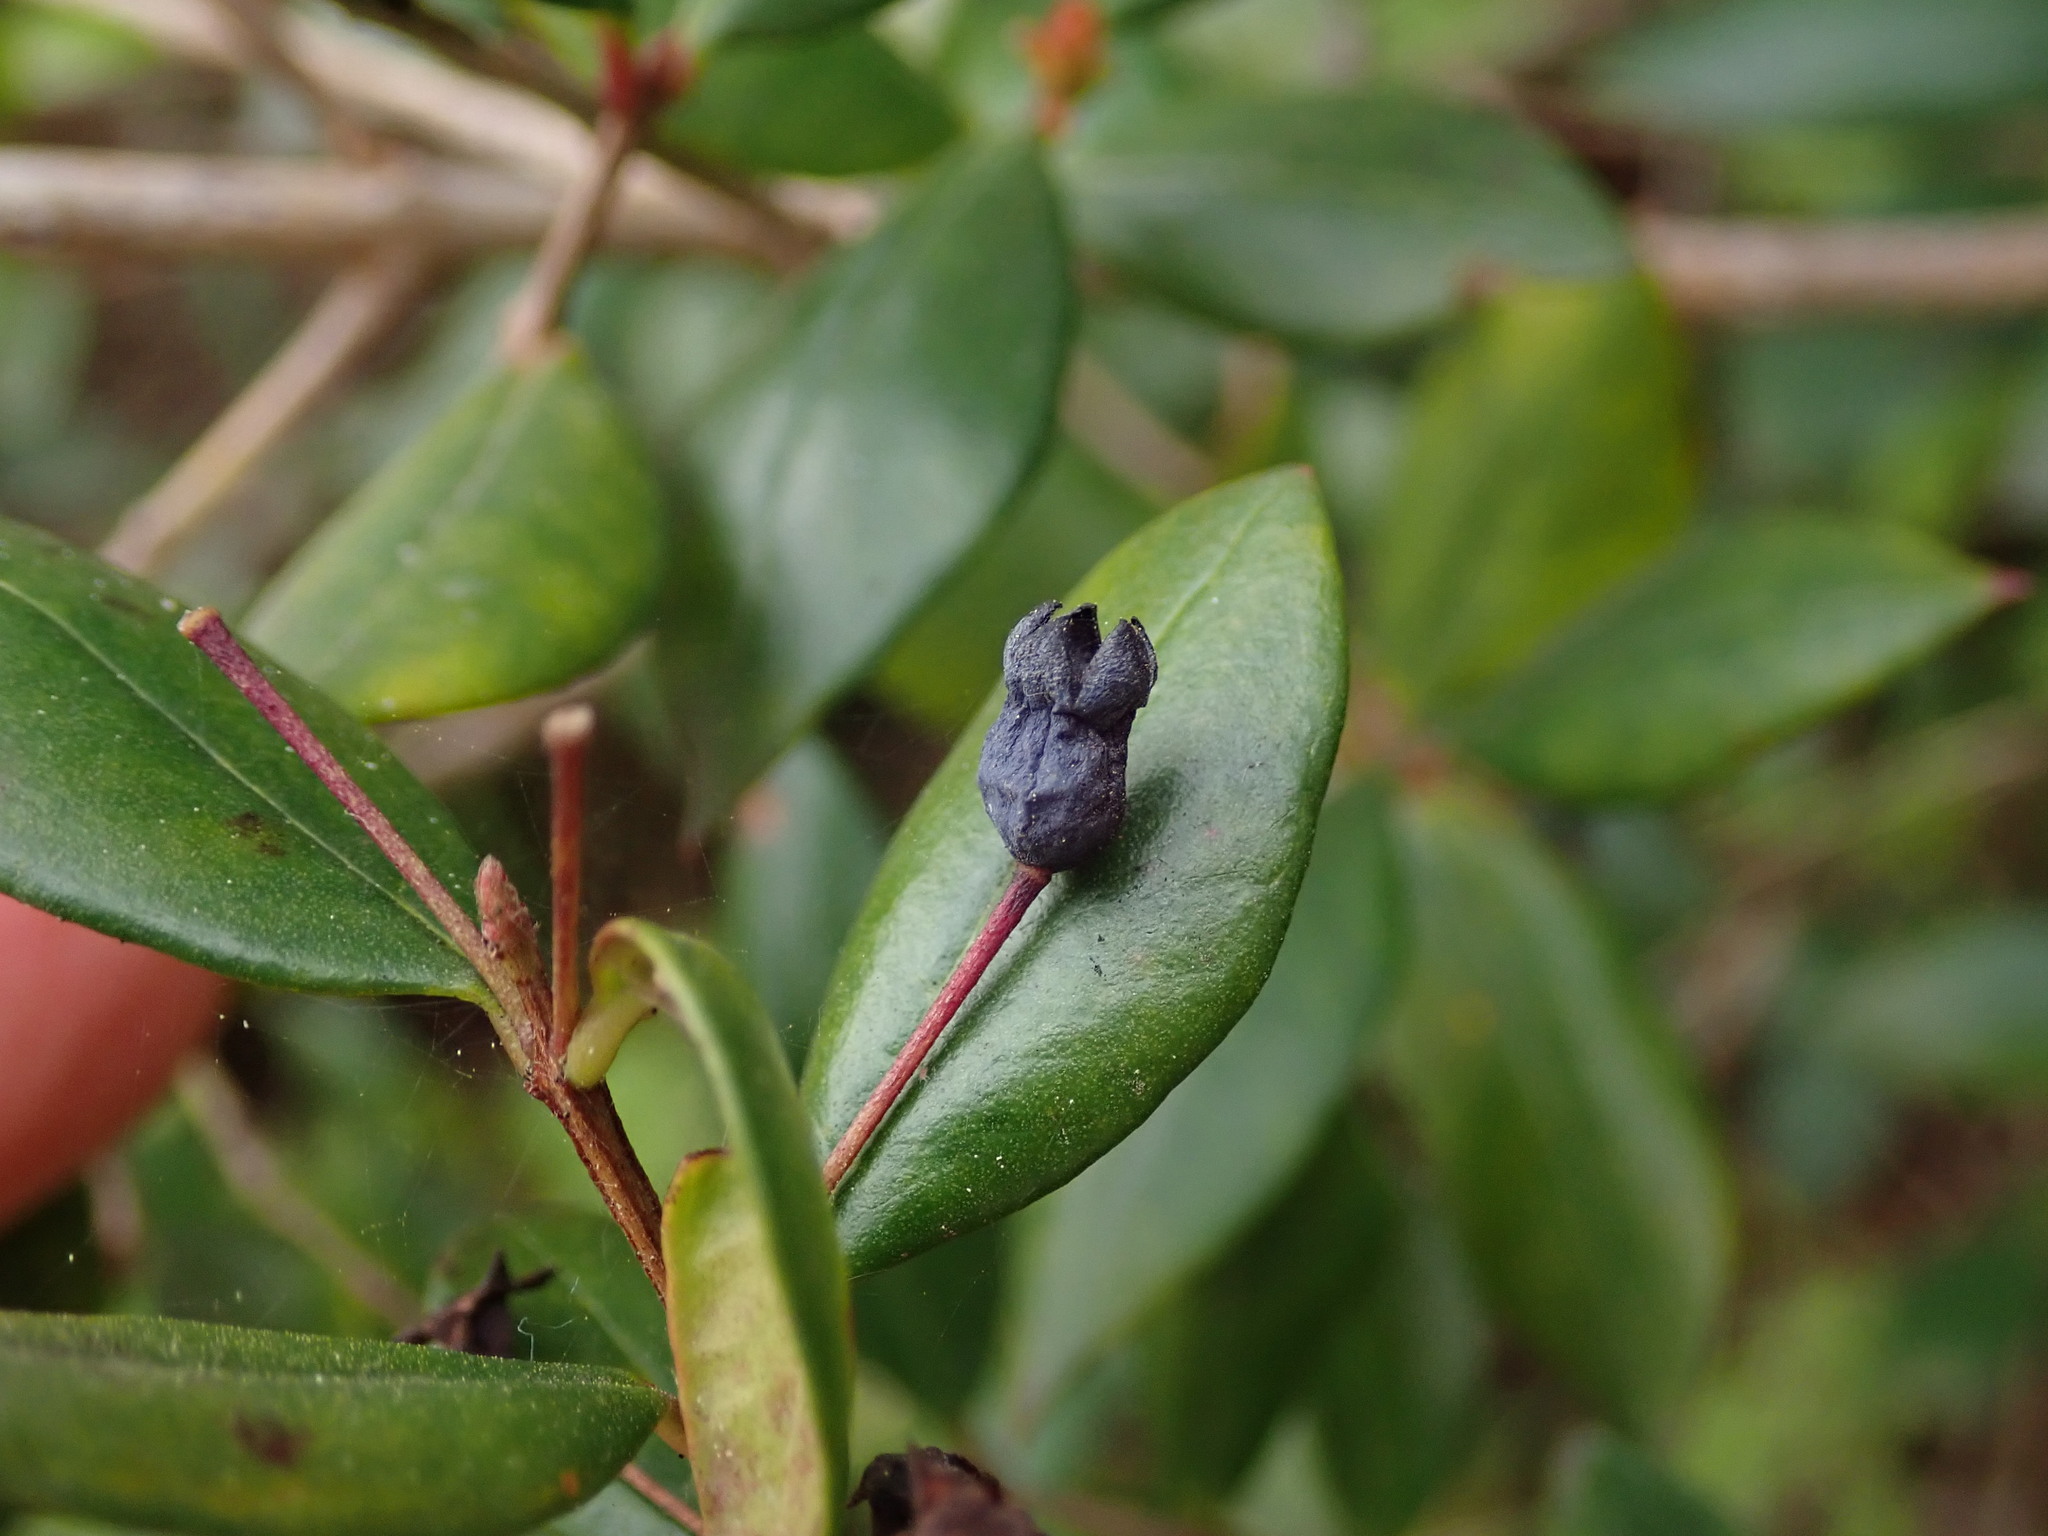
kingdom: Plantae
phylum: Tracheophyta
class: Magnoliopsida
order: Myrtales
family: Myrtaceae
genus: Myrtus
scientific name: Myrtus communis
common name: Myrtle
